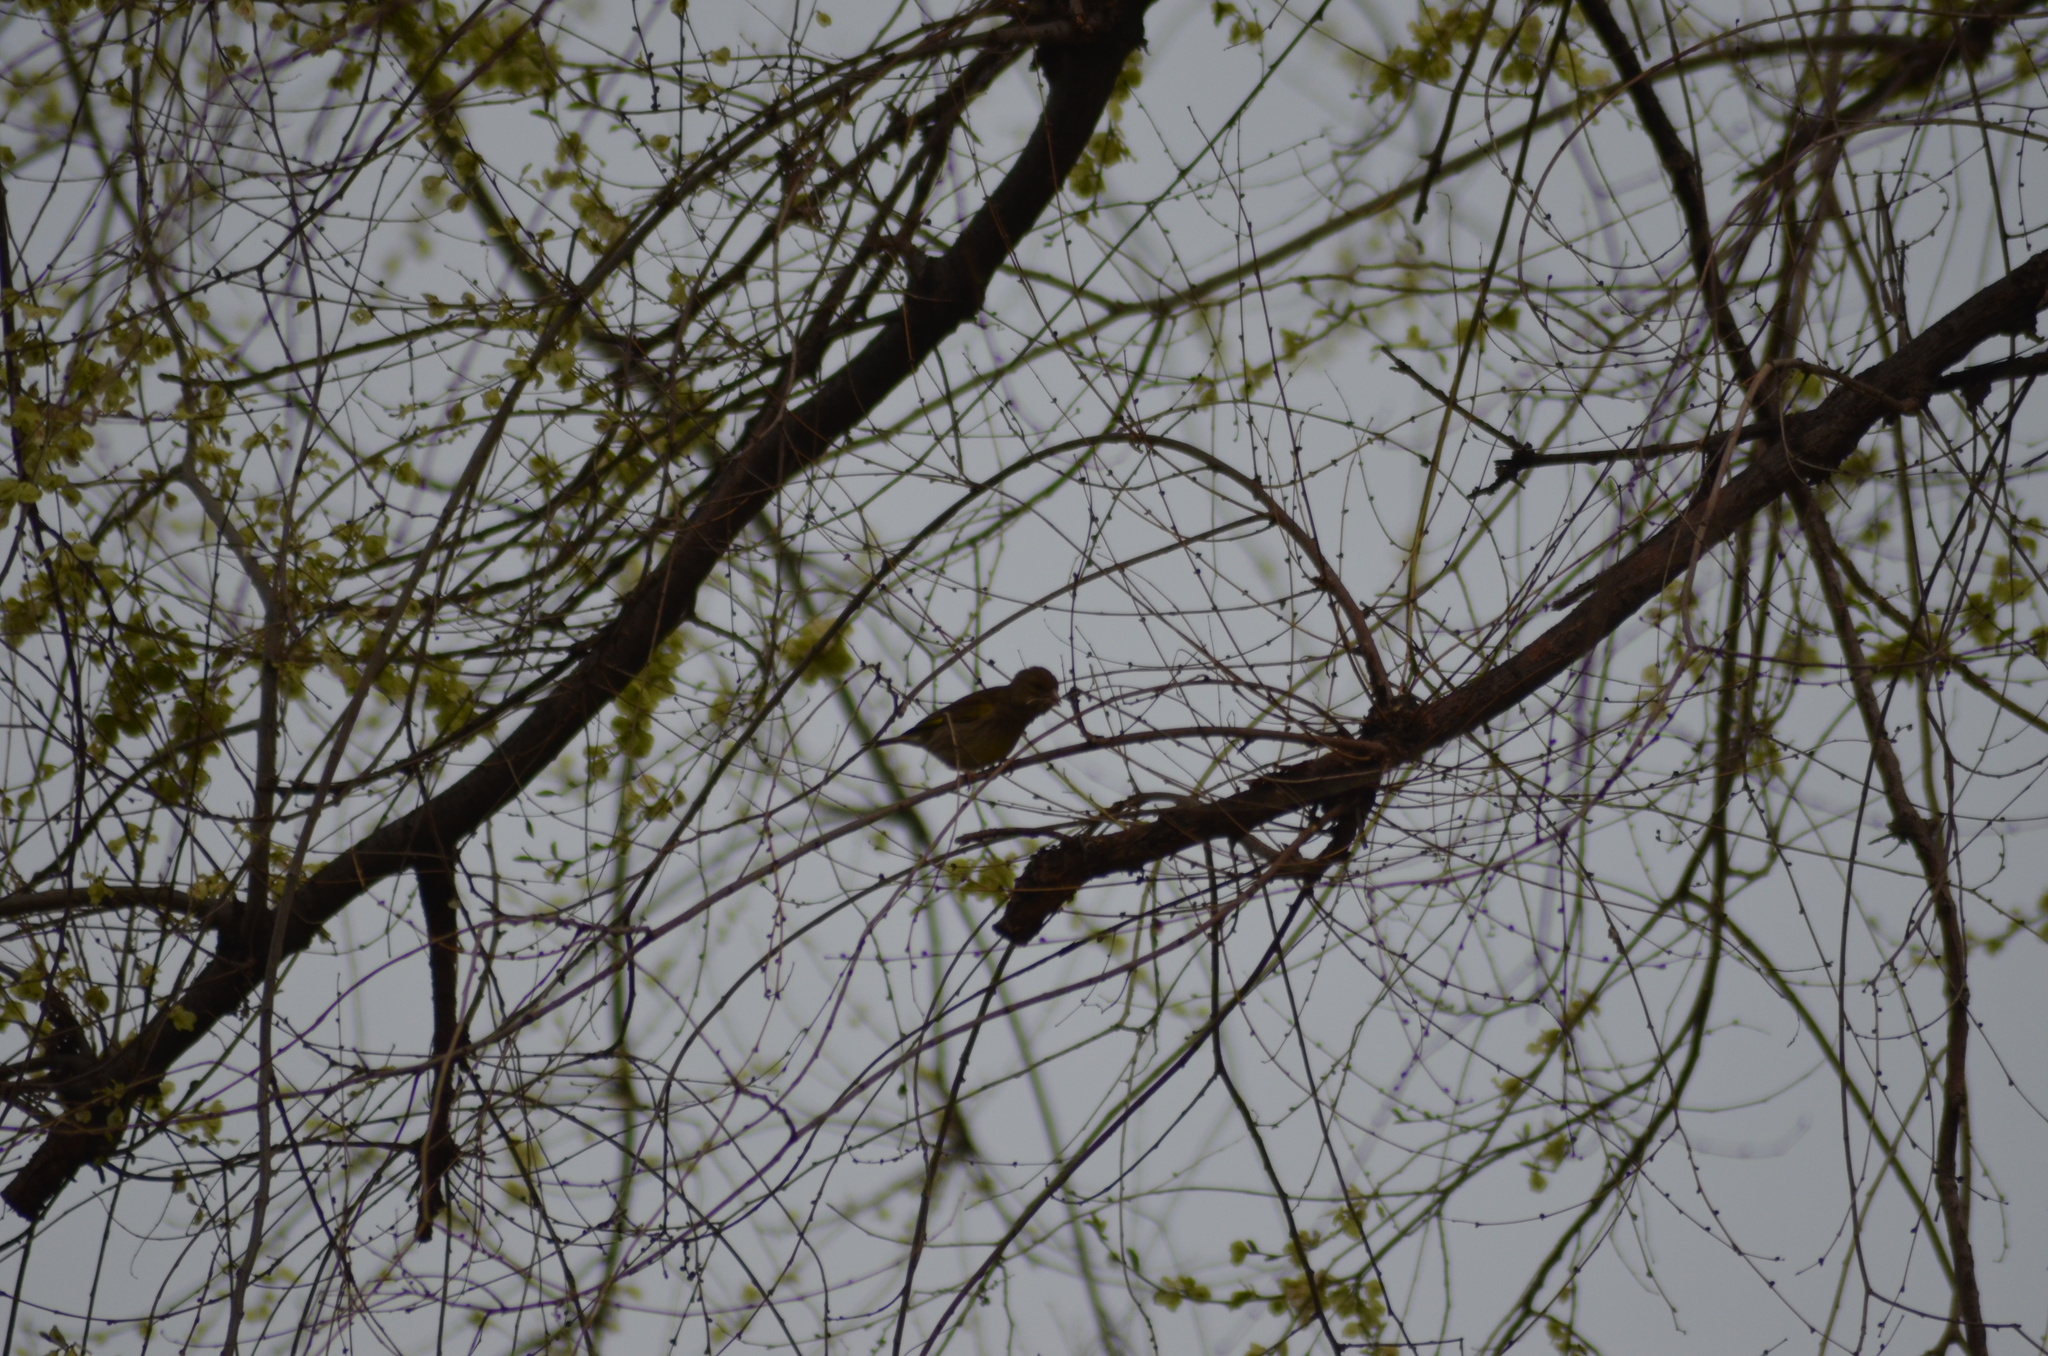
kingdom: Plantae
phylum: Tracheophyta
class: Liliopsida
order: Poales
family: Poaceae
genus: Chloris
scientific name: Chloris chloris
